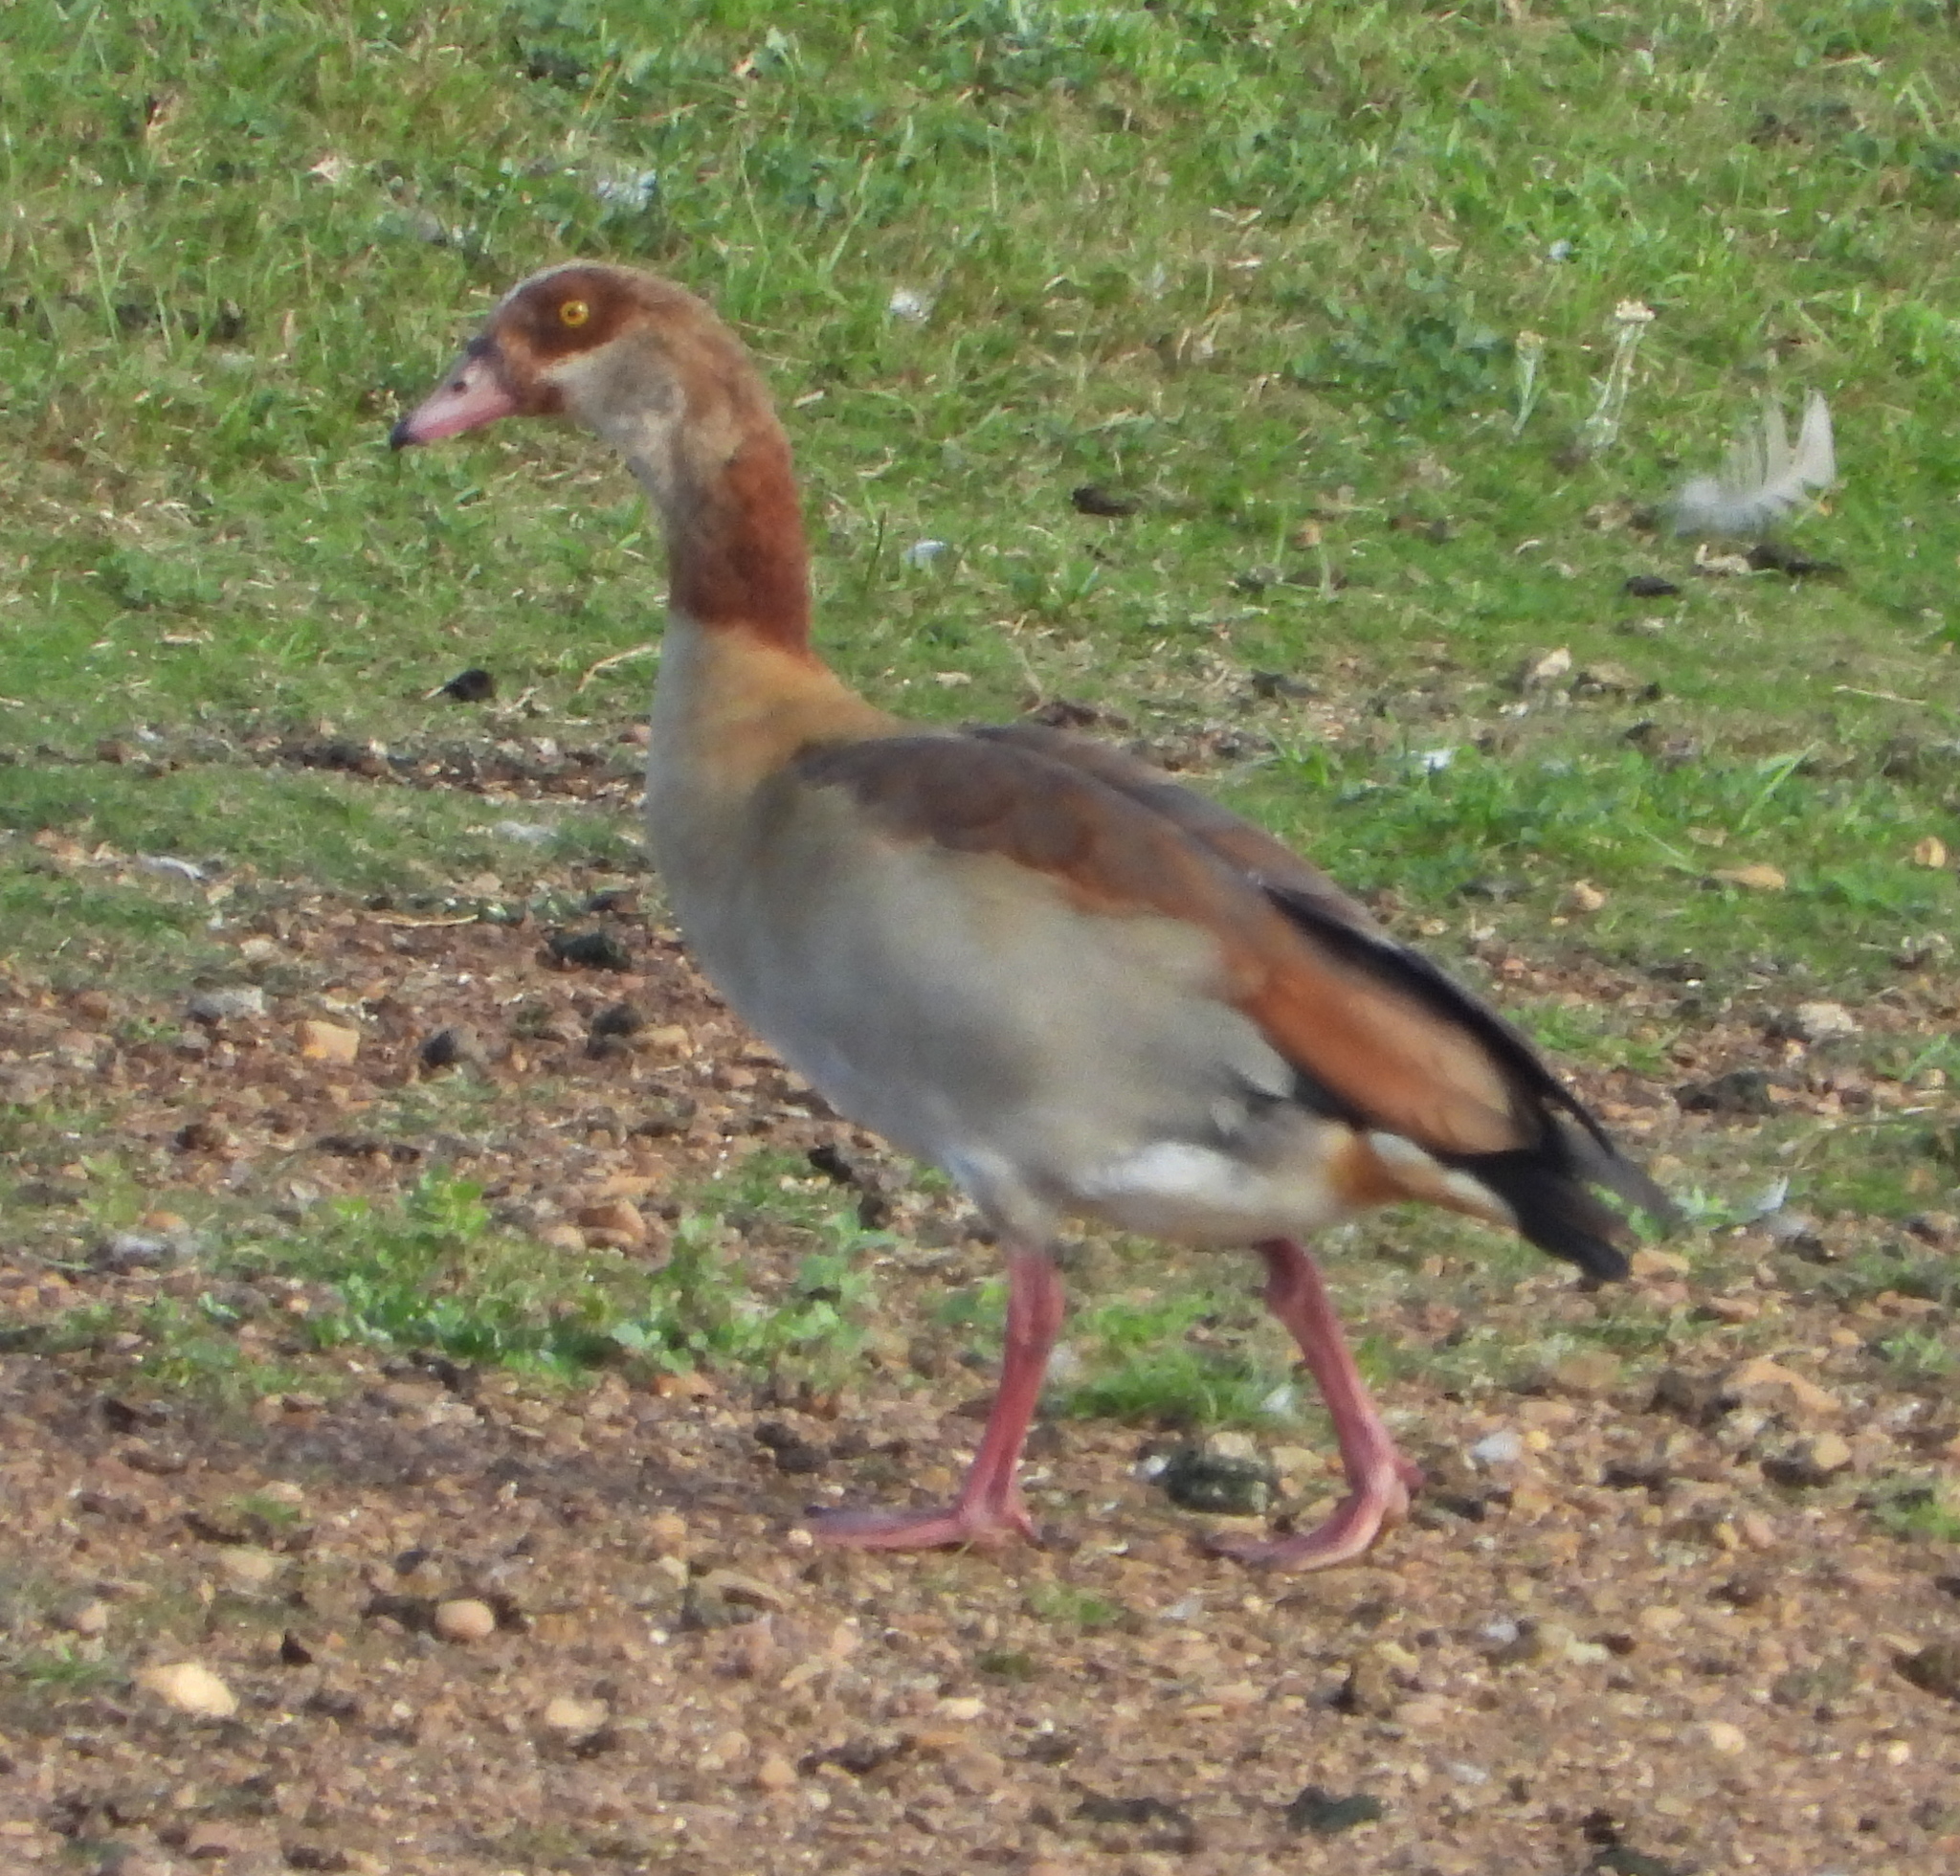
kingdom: Animalia
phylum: Chordata
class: Aves
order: Anseriformes
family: Anatidae
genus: Alopochen
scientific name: Alopochen aegyptiaca
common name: Egyptian goose
